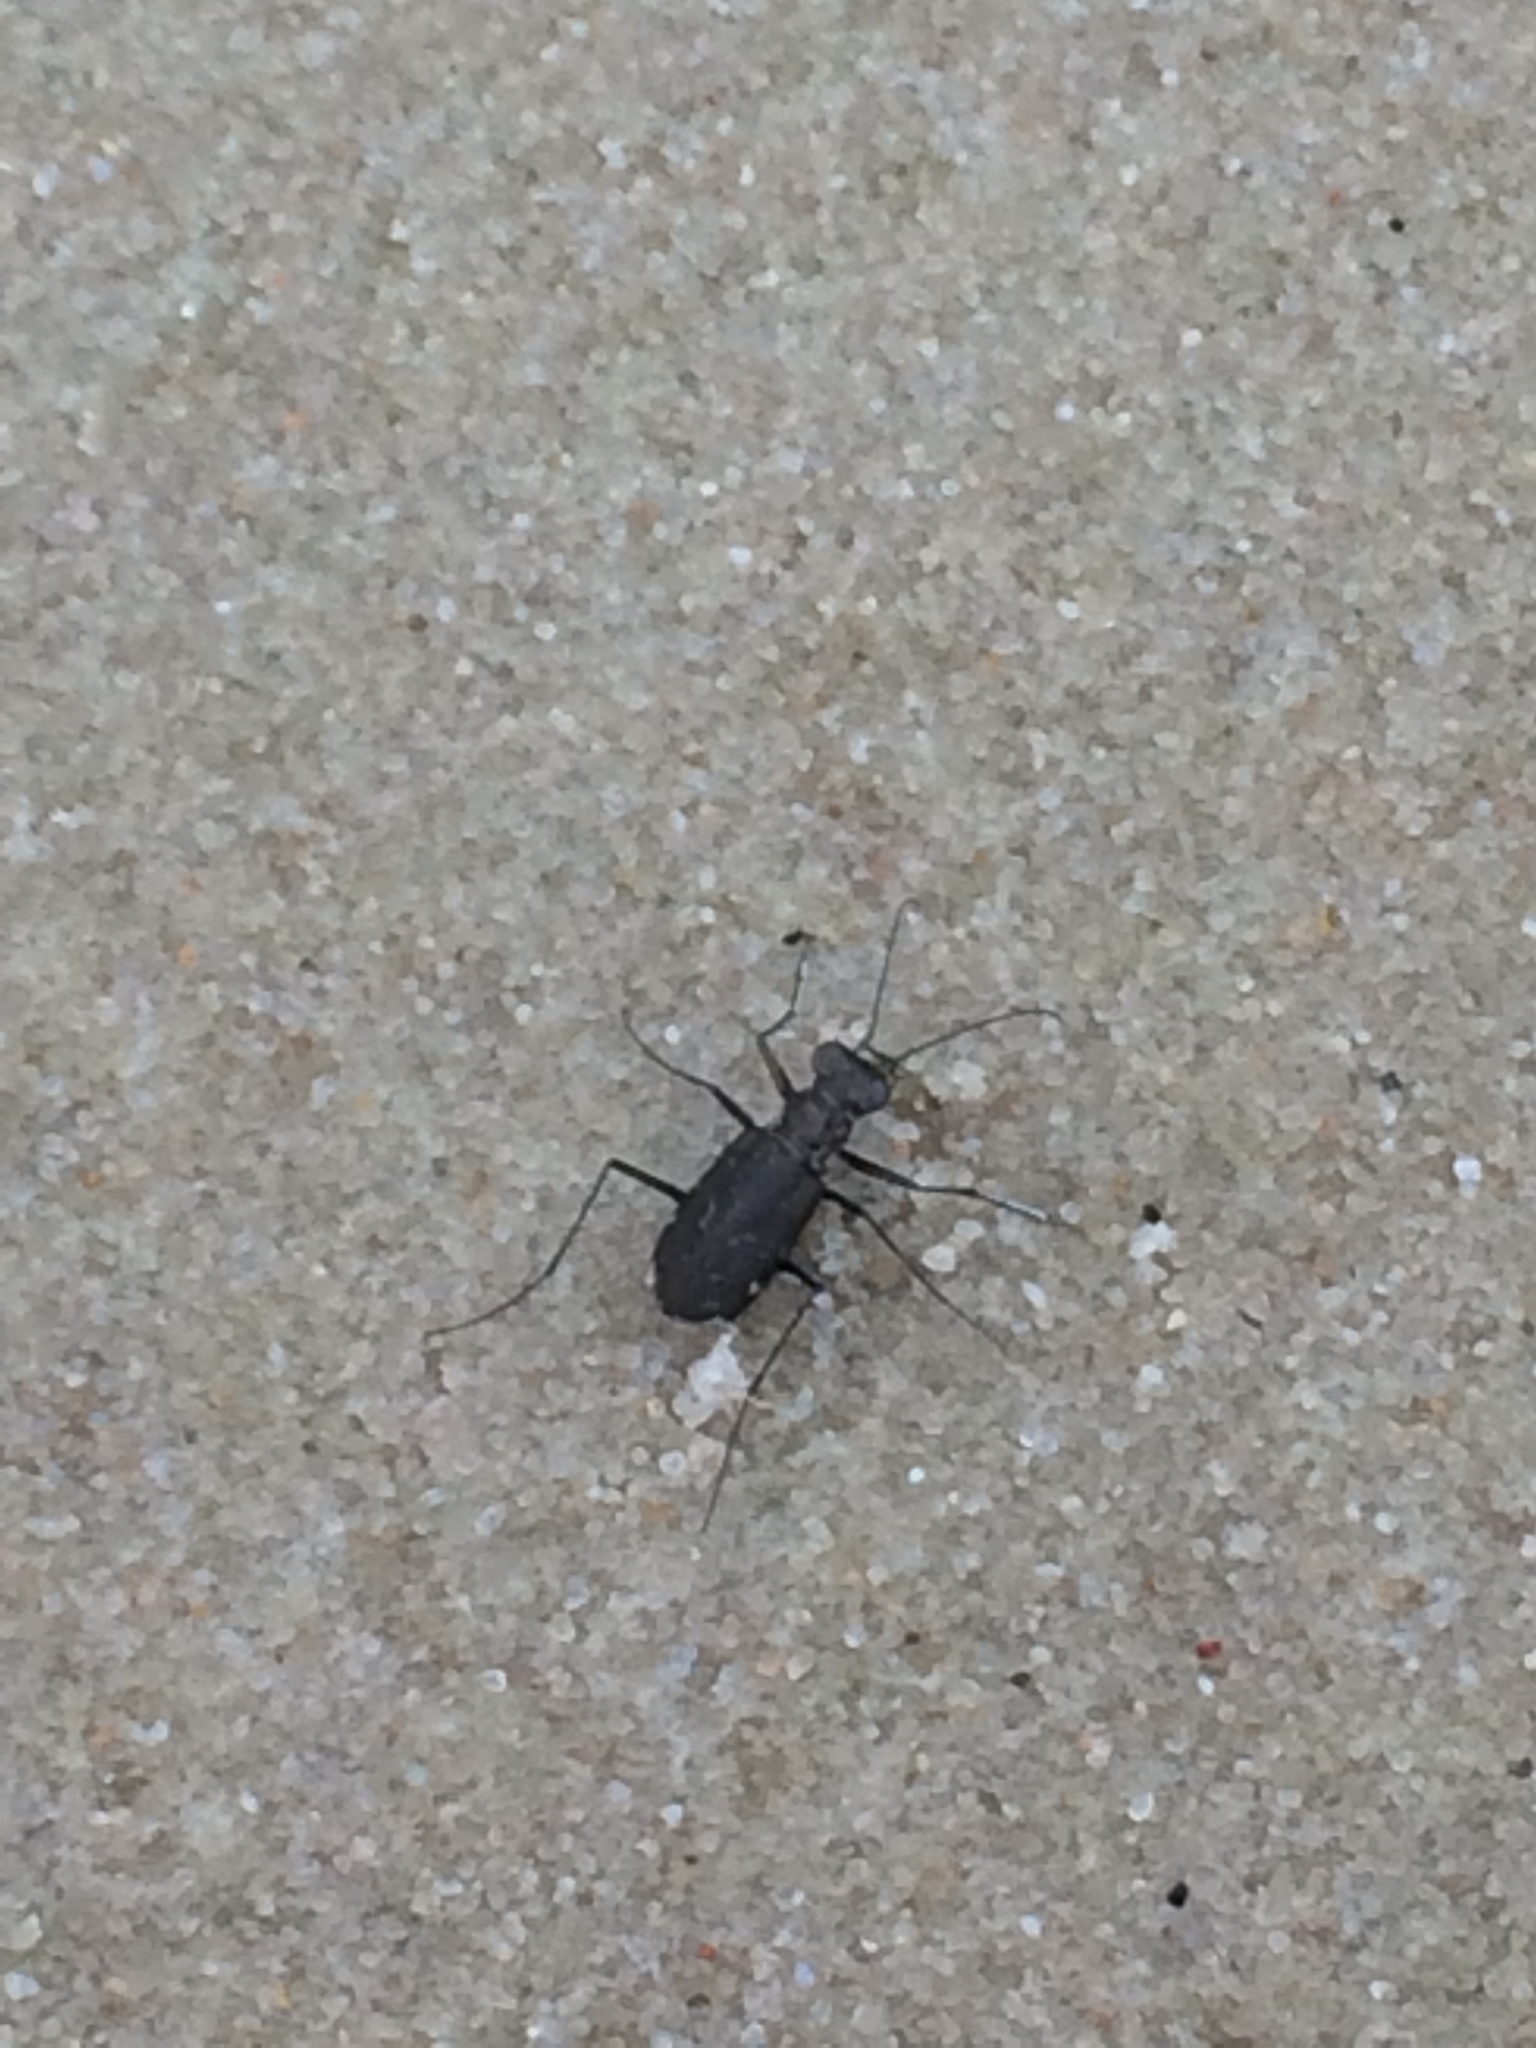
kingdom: Animalia
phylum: Arthropoda
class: Insecta
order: Coleoptera
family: Carabidae
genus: Cicindela
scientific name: Cicindela trifasciata
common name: Mudflat tiger beetle
